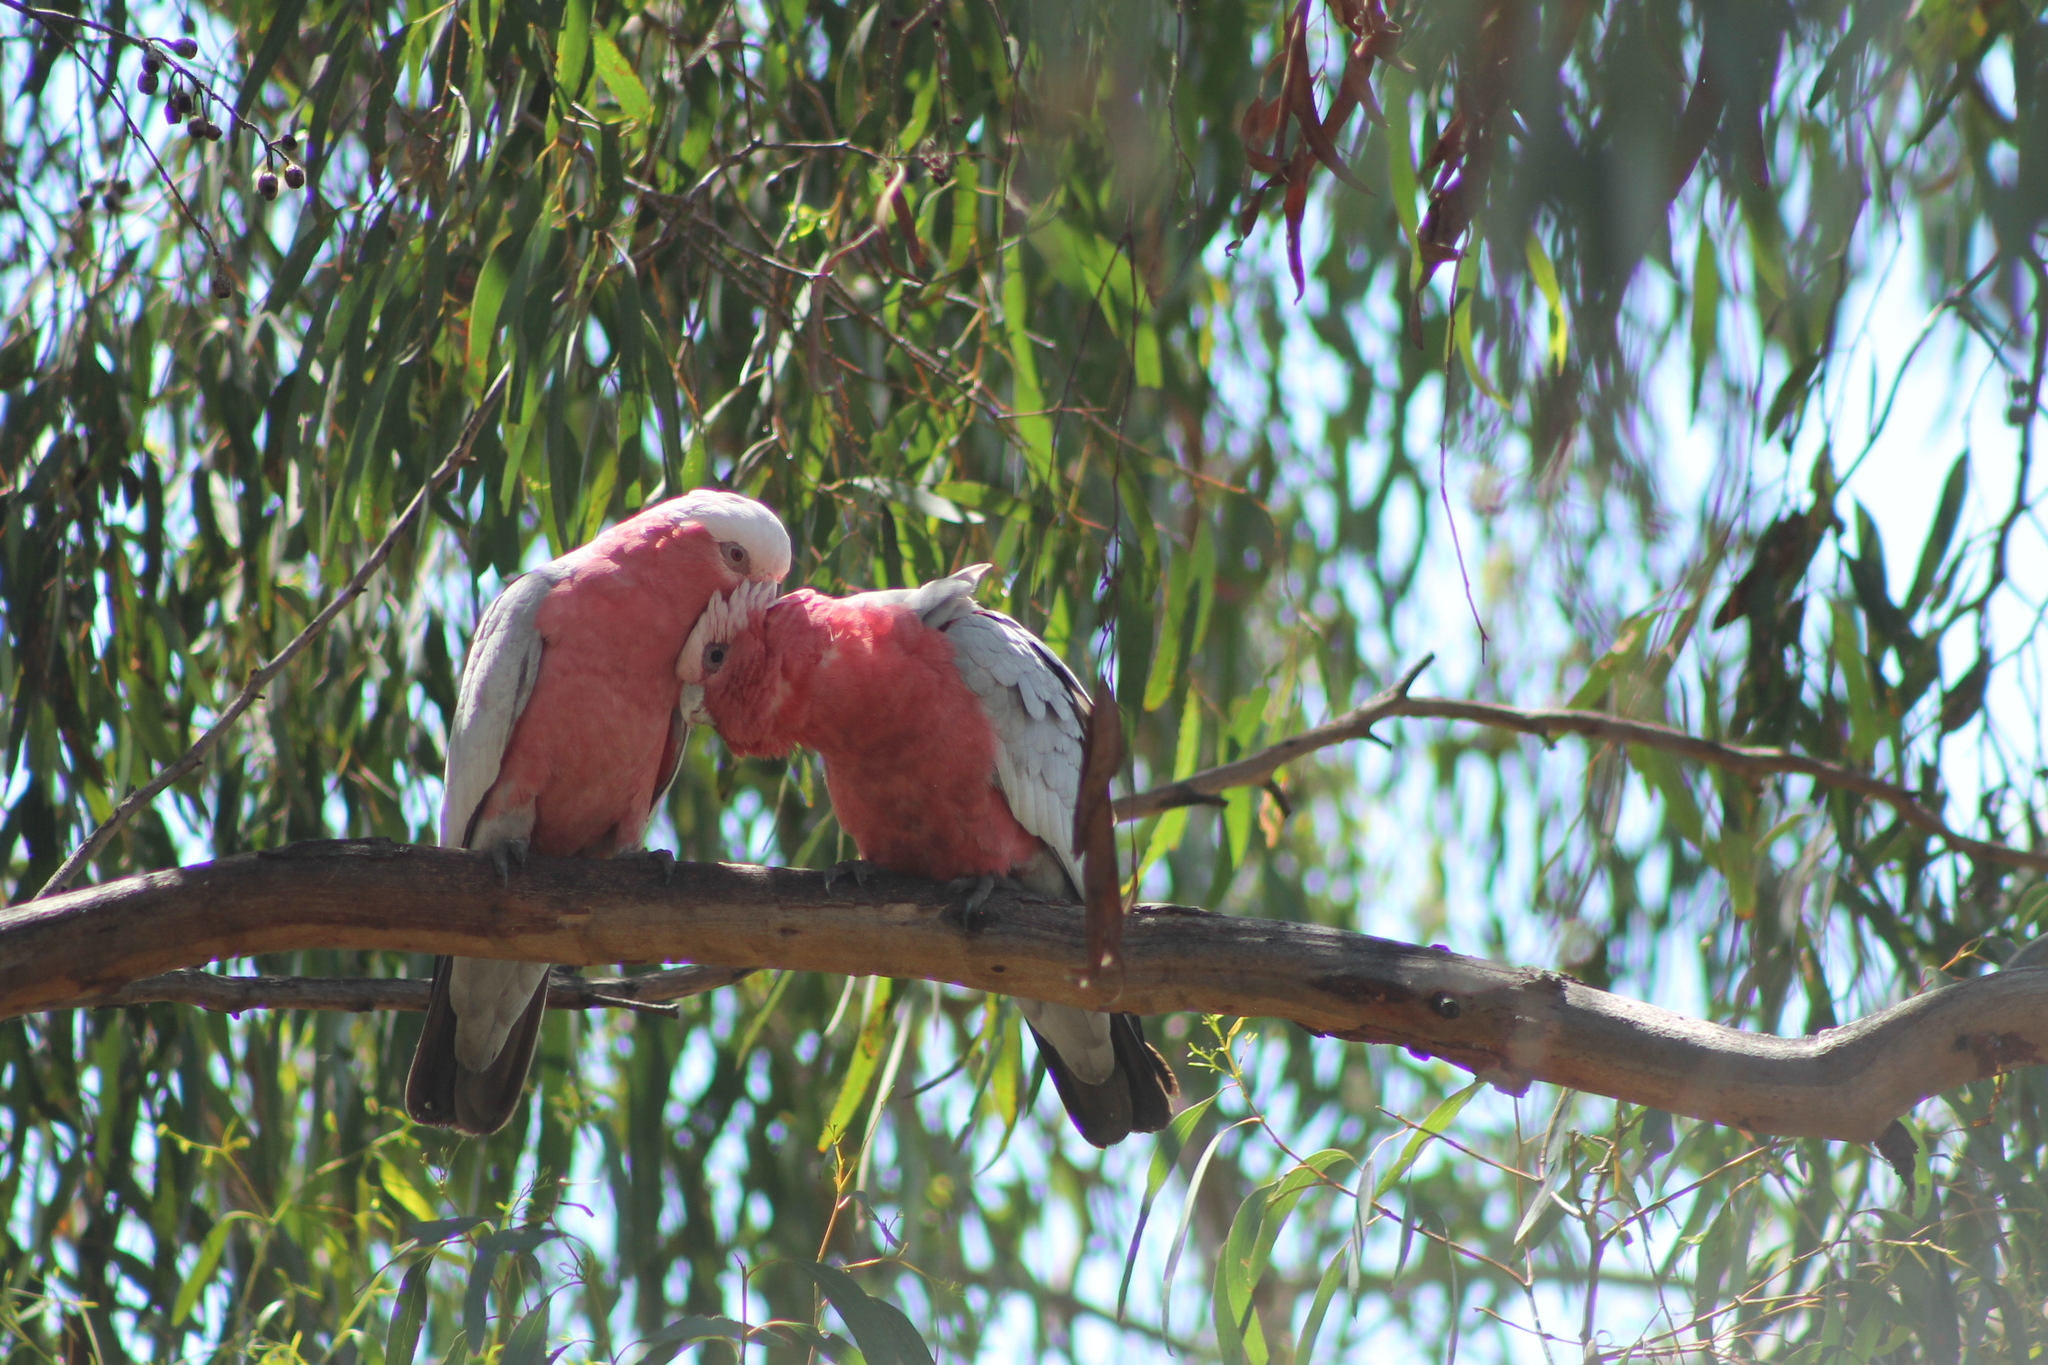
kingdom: Animalia
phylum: Chordata
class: Aves
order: Psittaciformes
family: Psittacidae
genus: Eolophus
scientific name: Eolophus roseicapilla
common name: Galah
